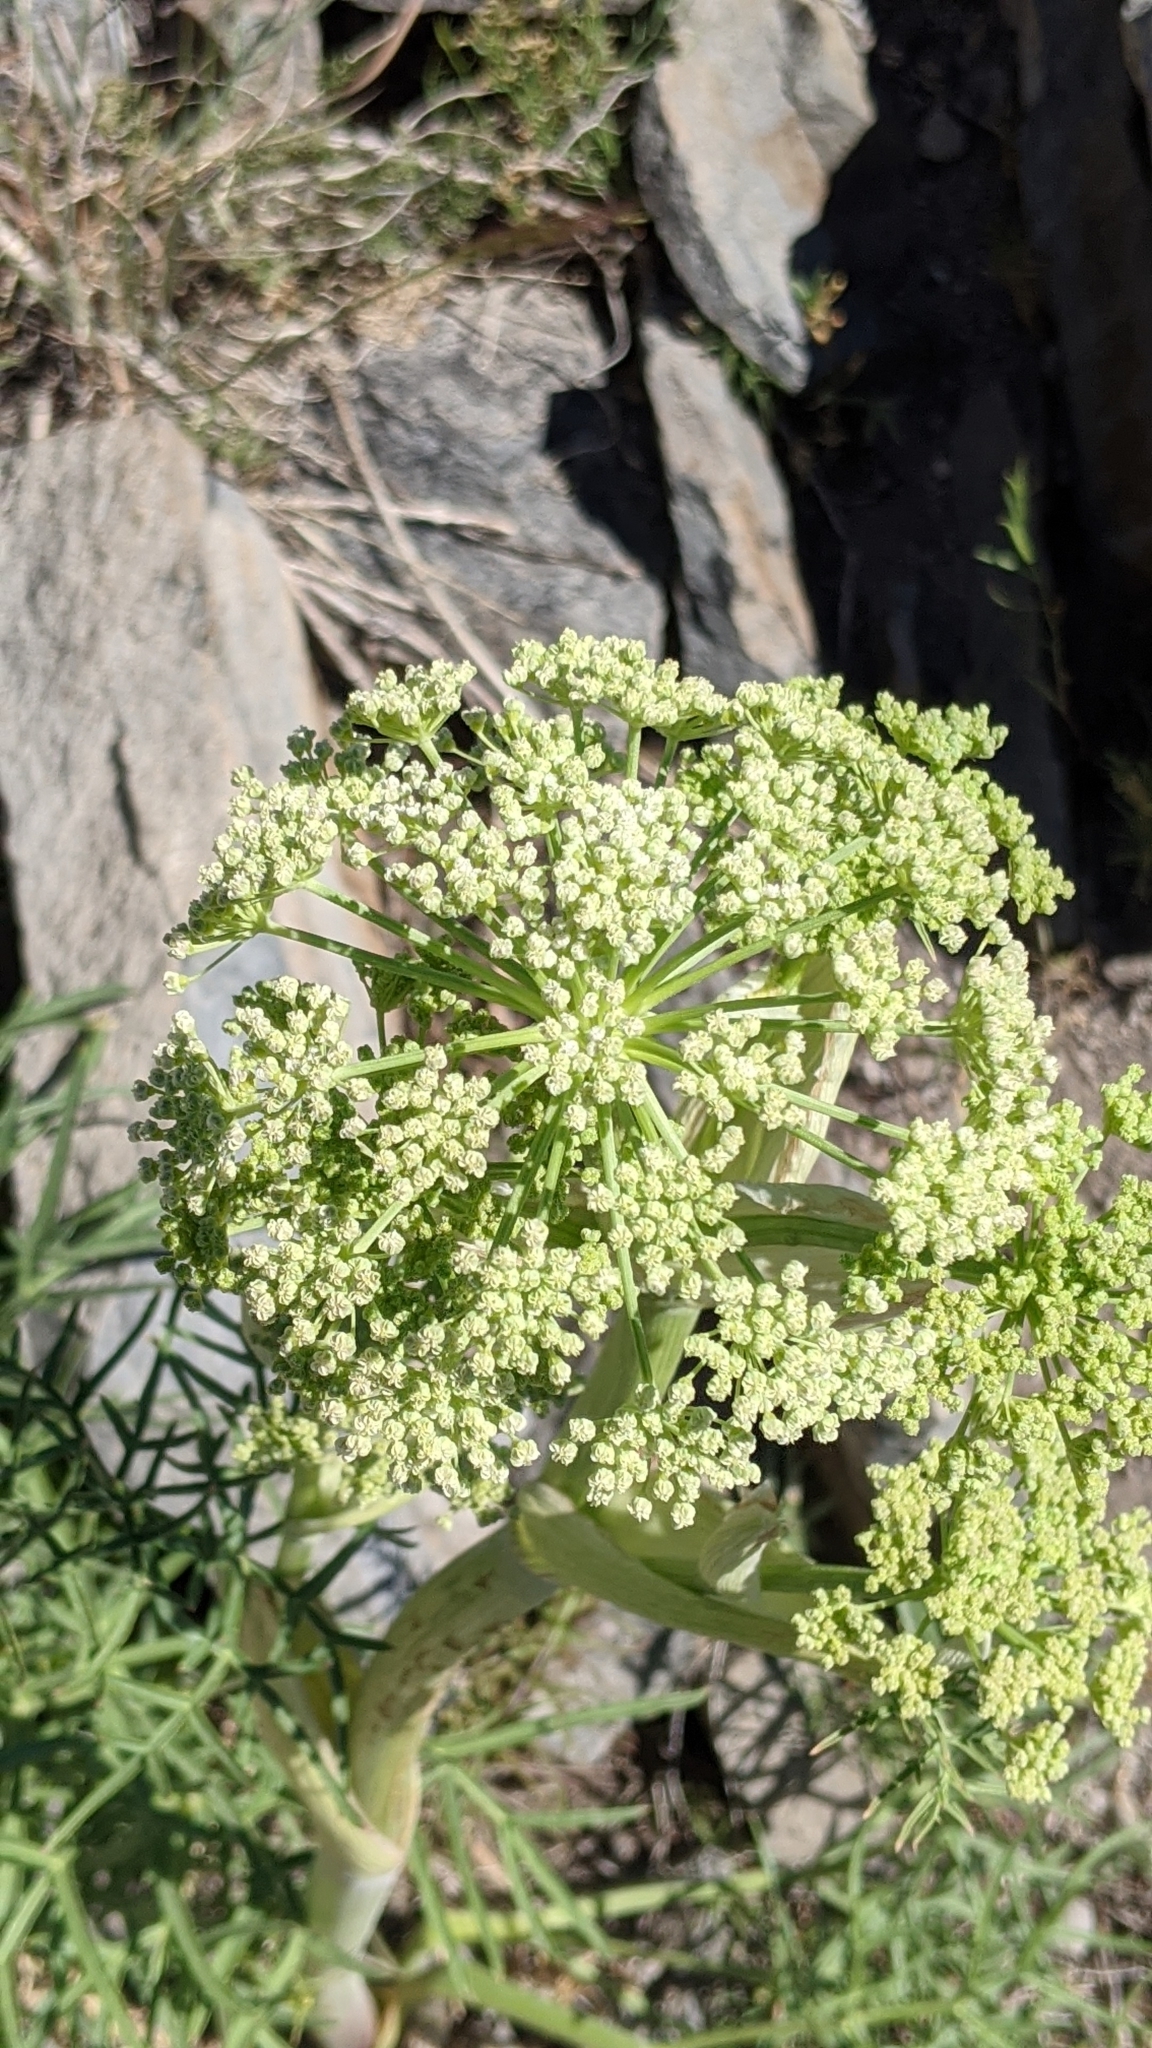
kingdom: Plantae
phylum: Tracheophyta
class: Magnoliopsida
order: Apiales
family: Apiaceae
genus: Angelica
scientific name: Angelica lineariloba
